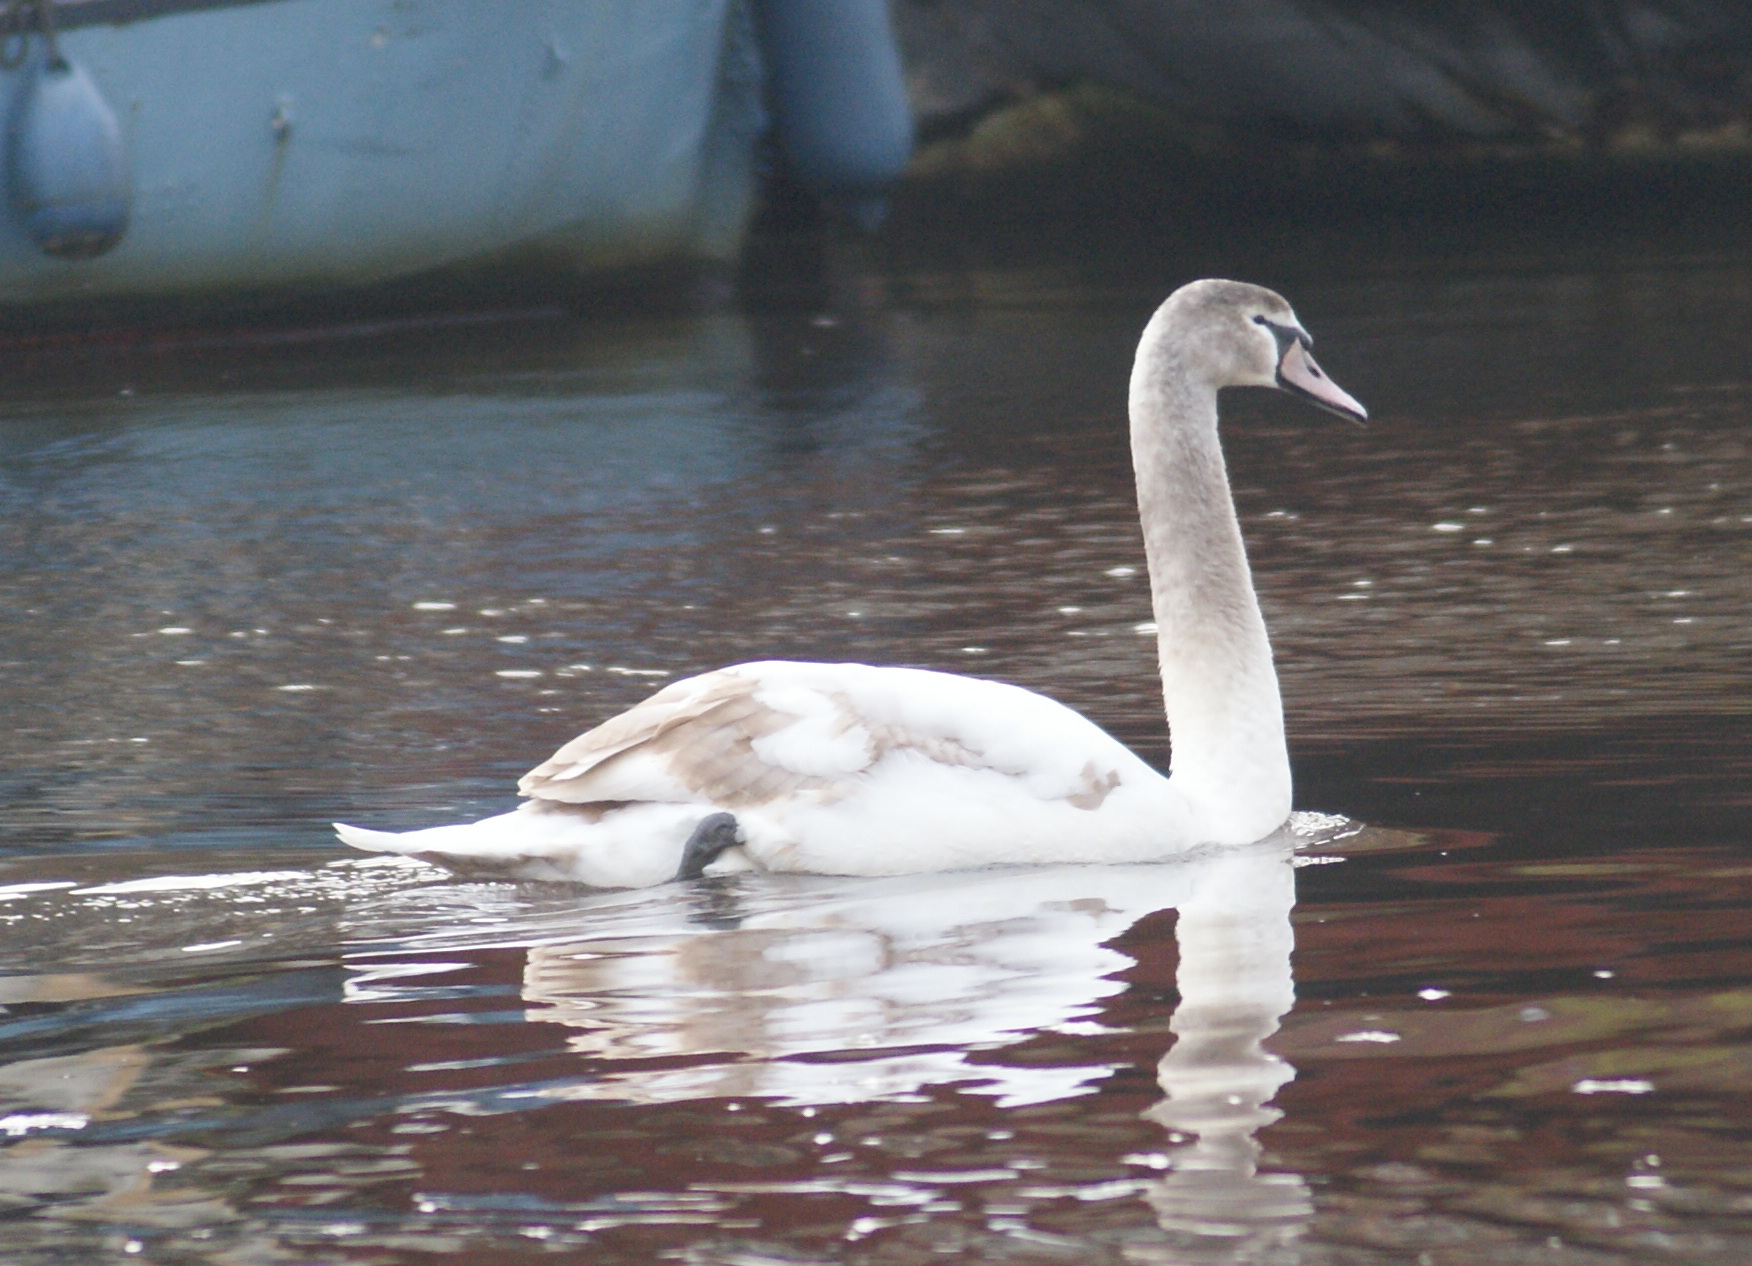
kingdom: Animalia
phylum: Chordata
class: Aves
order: Anseriformes
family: Anatidae
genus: Cygnus
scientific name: Cygnus olor
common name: Mute swan
